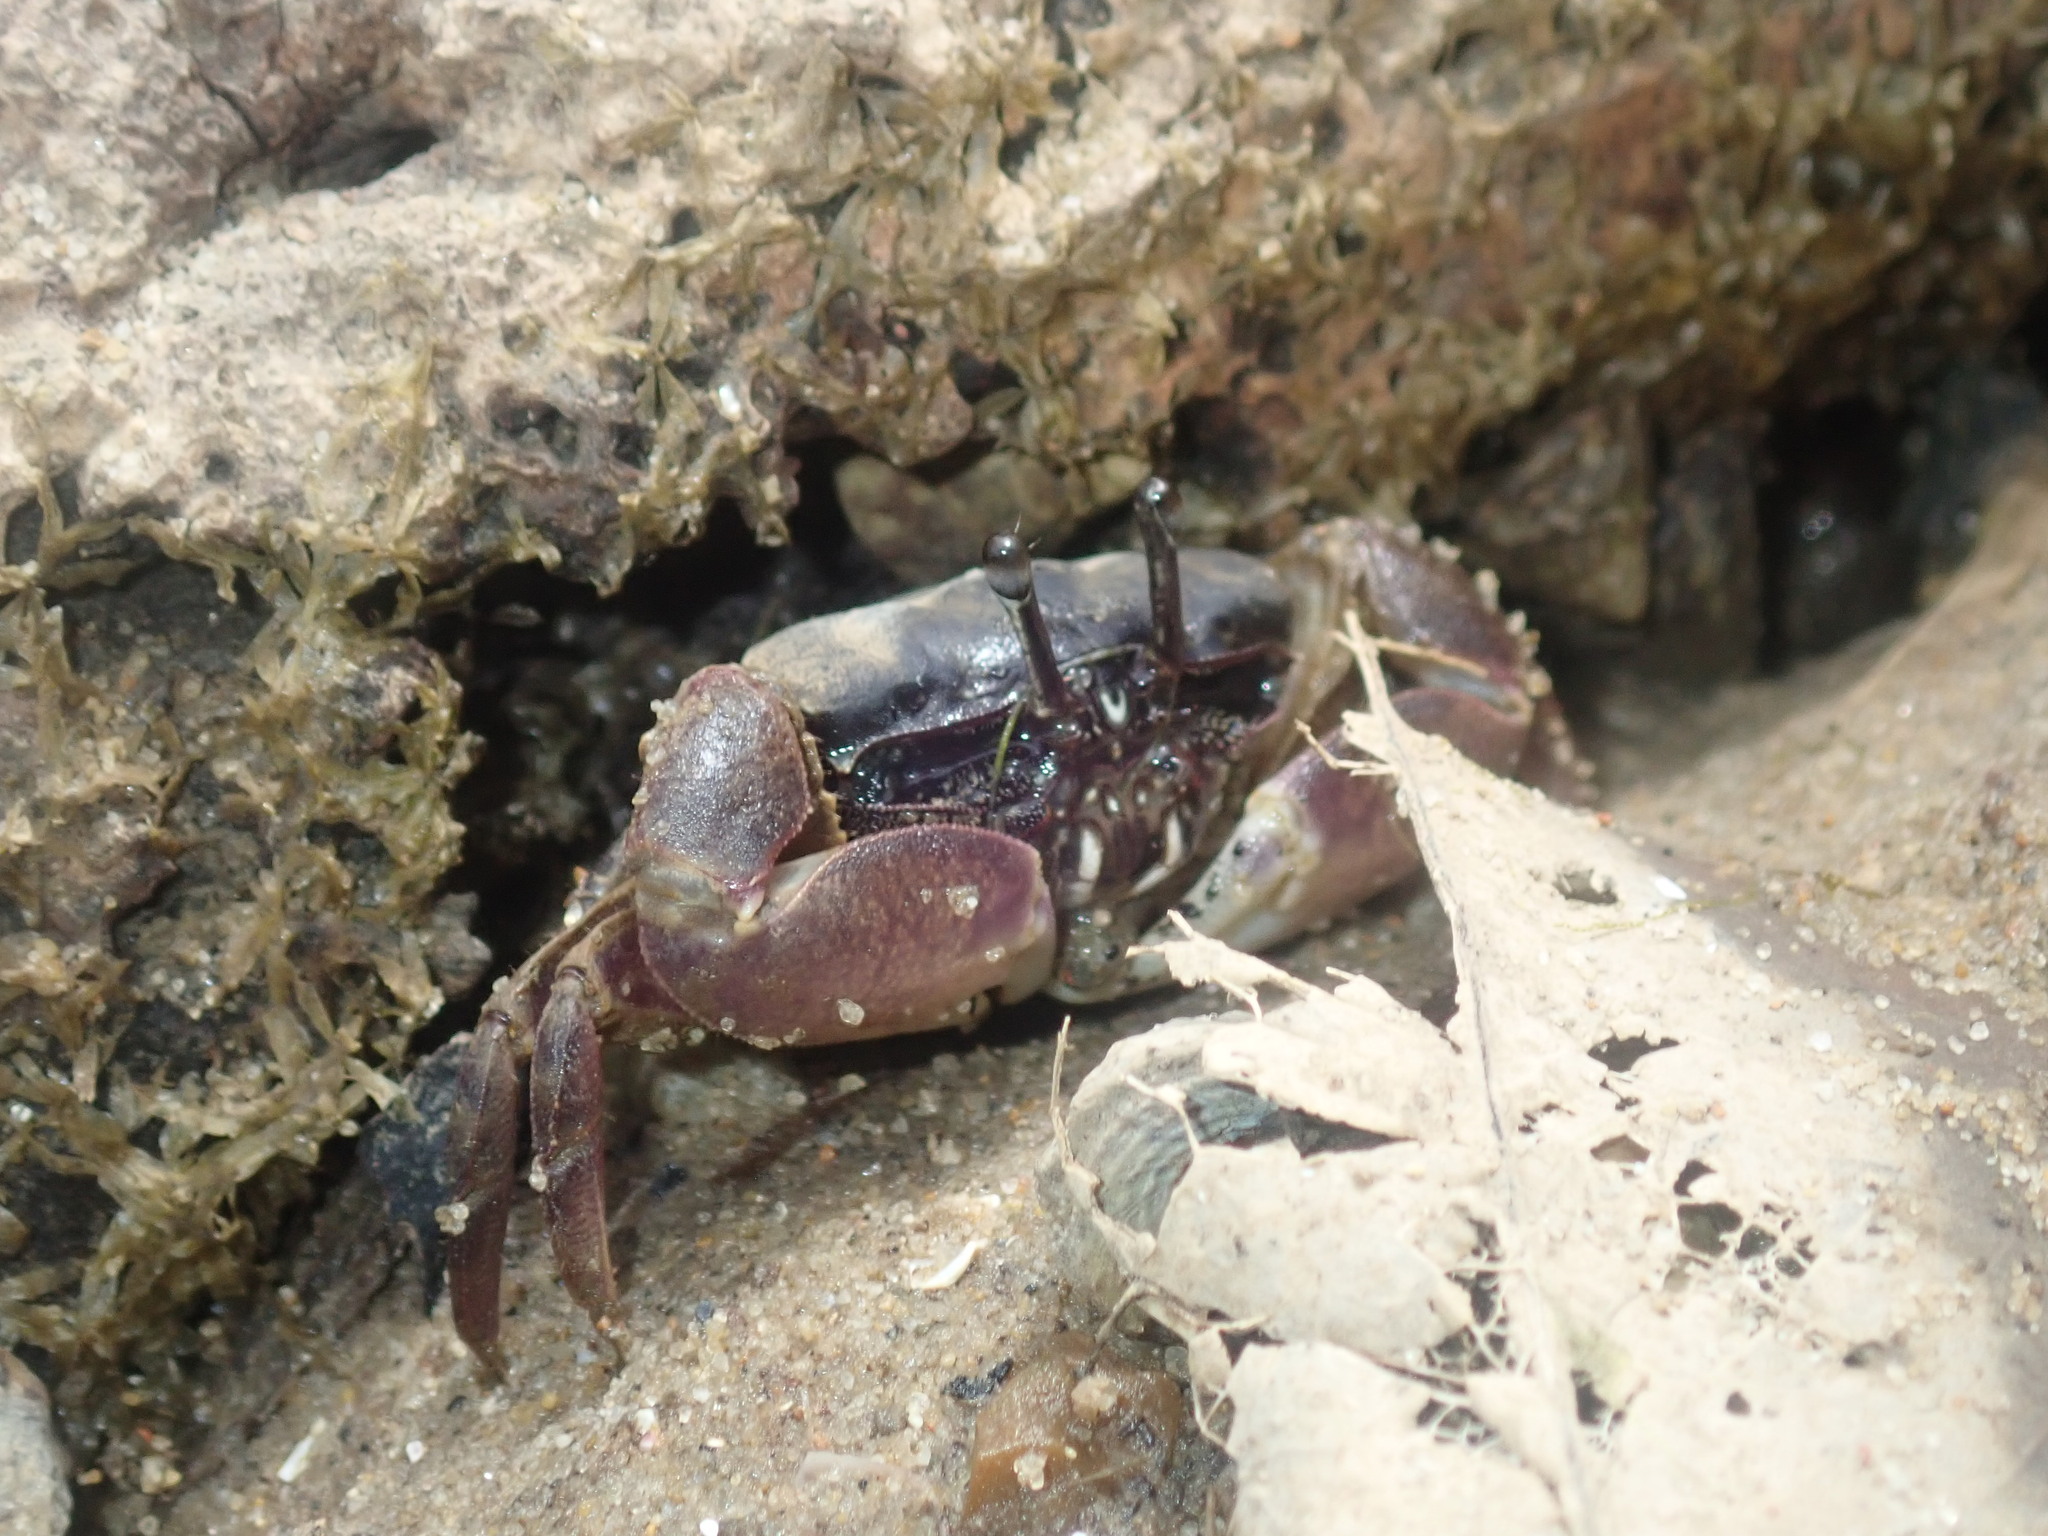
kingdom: Animalia
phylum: Arthropoda
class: Malacostraca
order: Decapoda
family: Heloeciidae
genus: Heloecius
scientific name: Heloecius cordiformis
